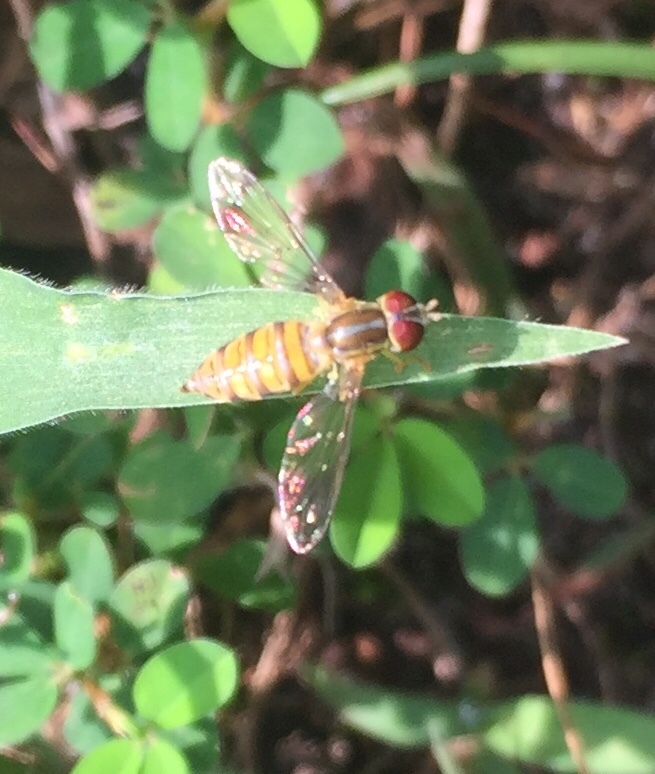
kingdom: Animalia
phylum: Arthropoda
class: Insecta
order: Diptera
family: Syrphidae
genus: Toxomerus
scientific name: Toxomerus politus
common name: Maize calligrapher
